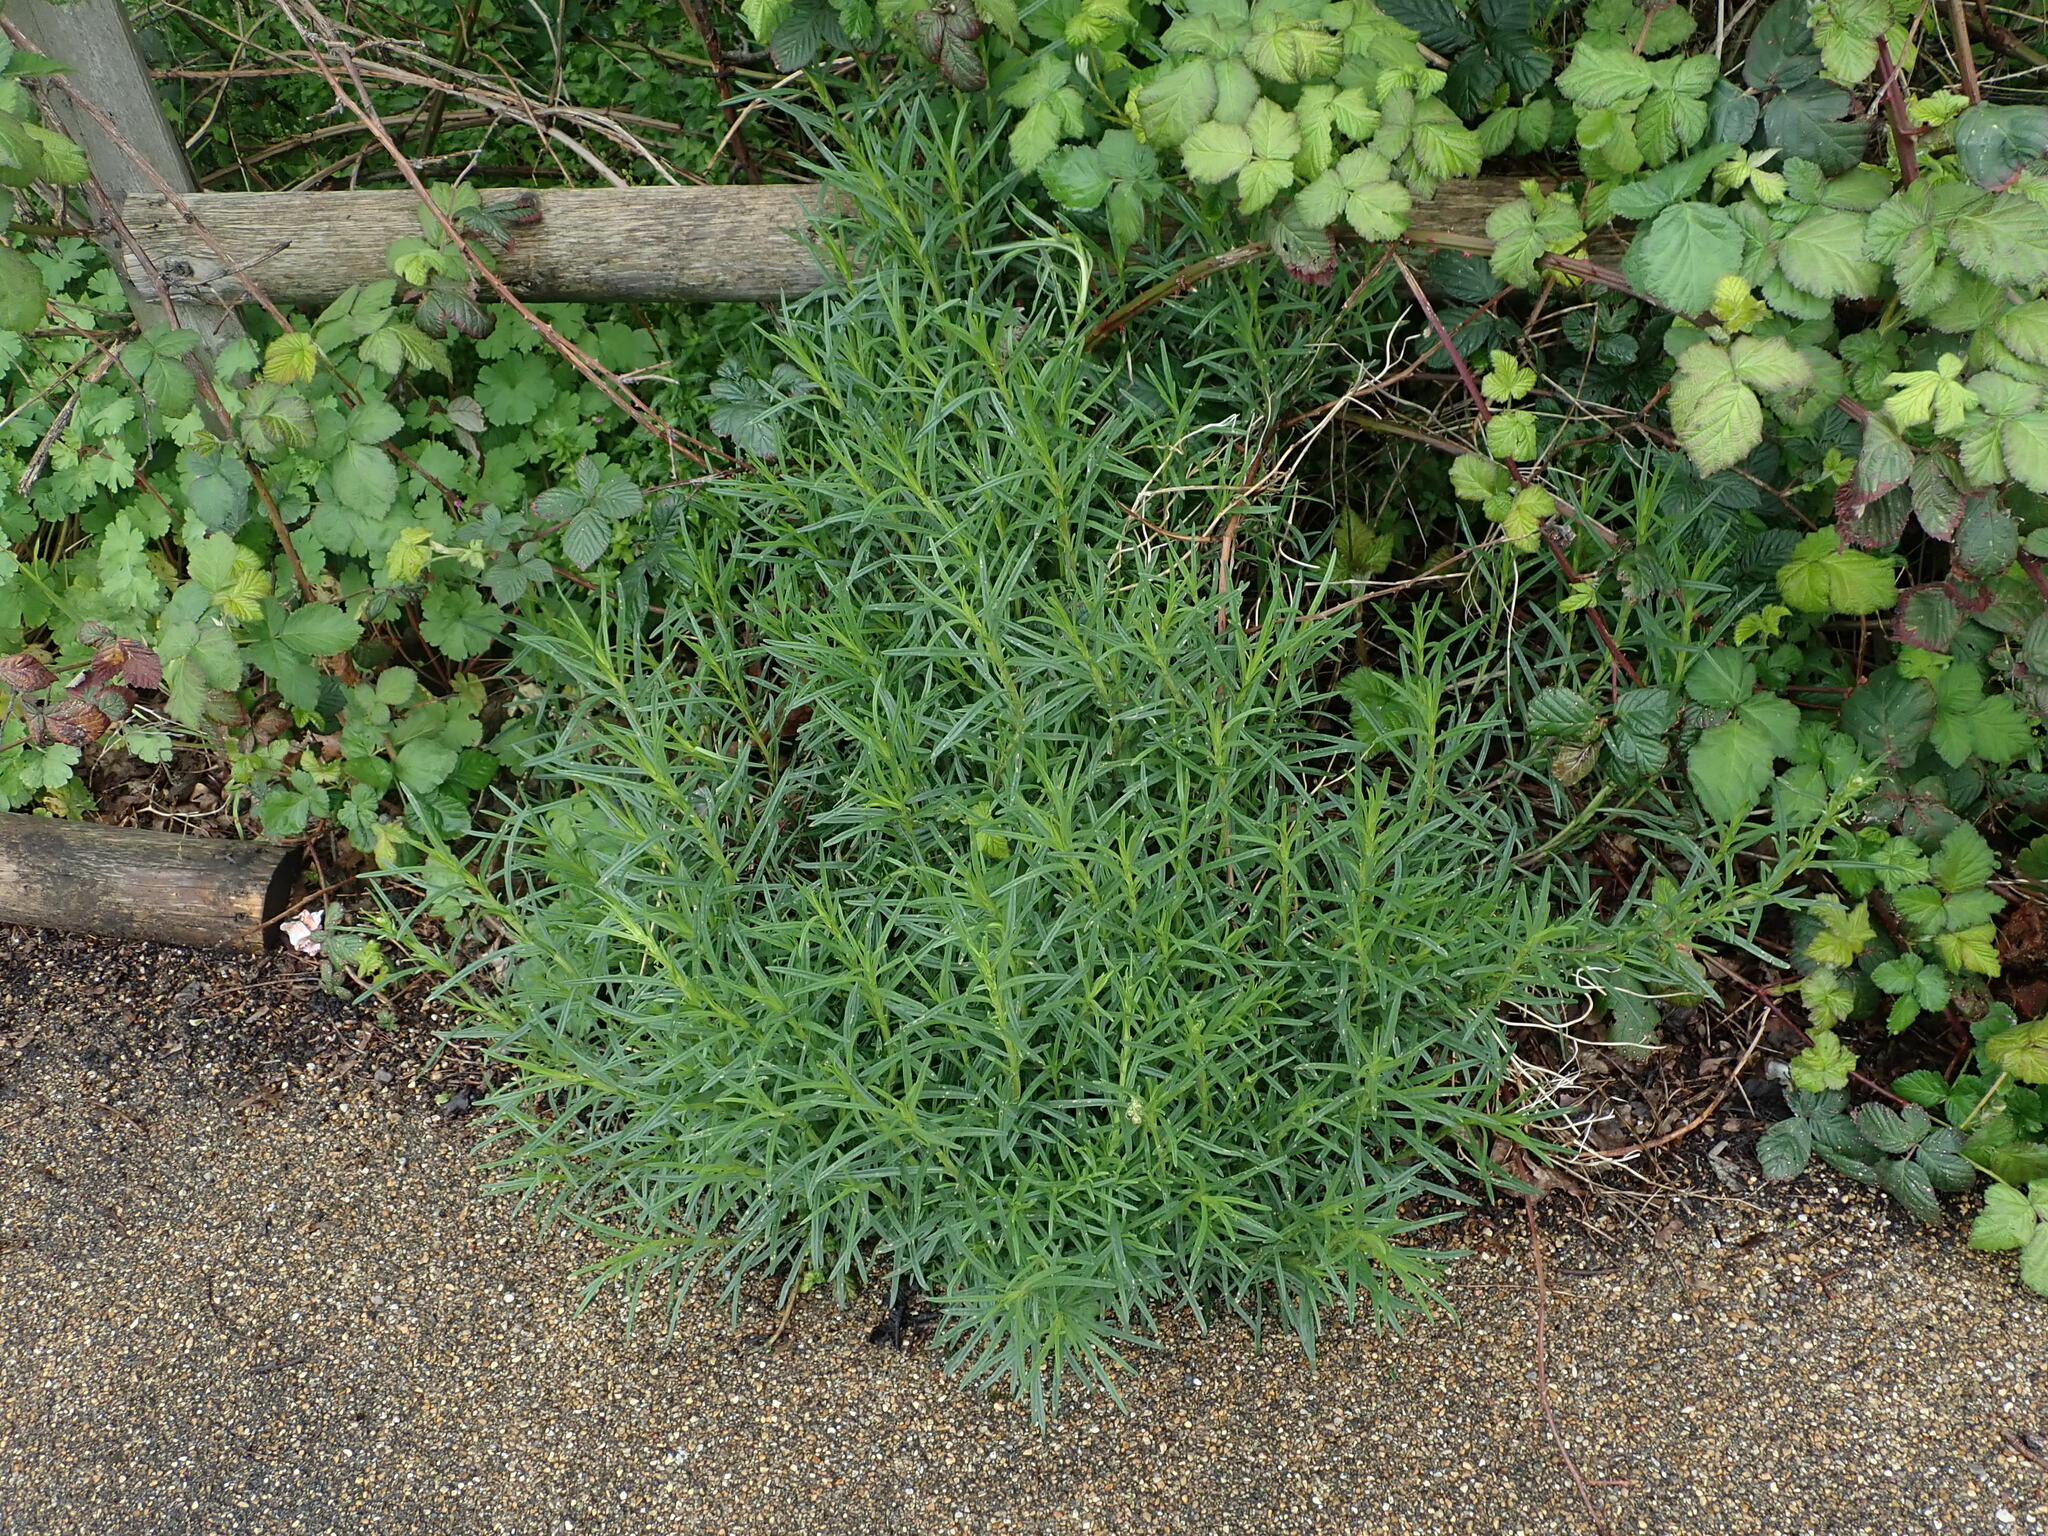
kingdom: Plantae
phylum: Tracheophyta
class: Magnoliopsida
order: Asterales
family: Asteraceae
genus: Senecio
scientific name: Senecio inaequidens
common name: Narrow-leaved ragwort
